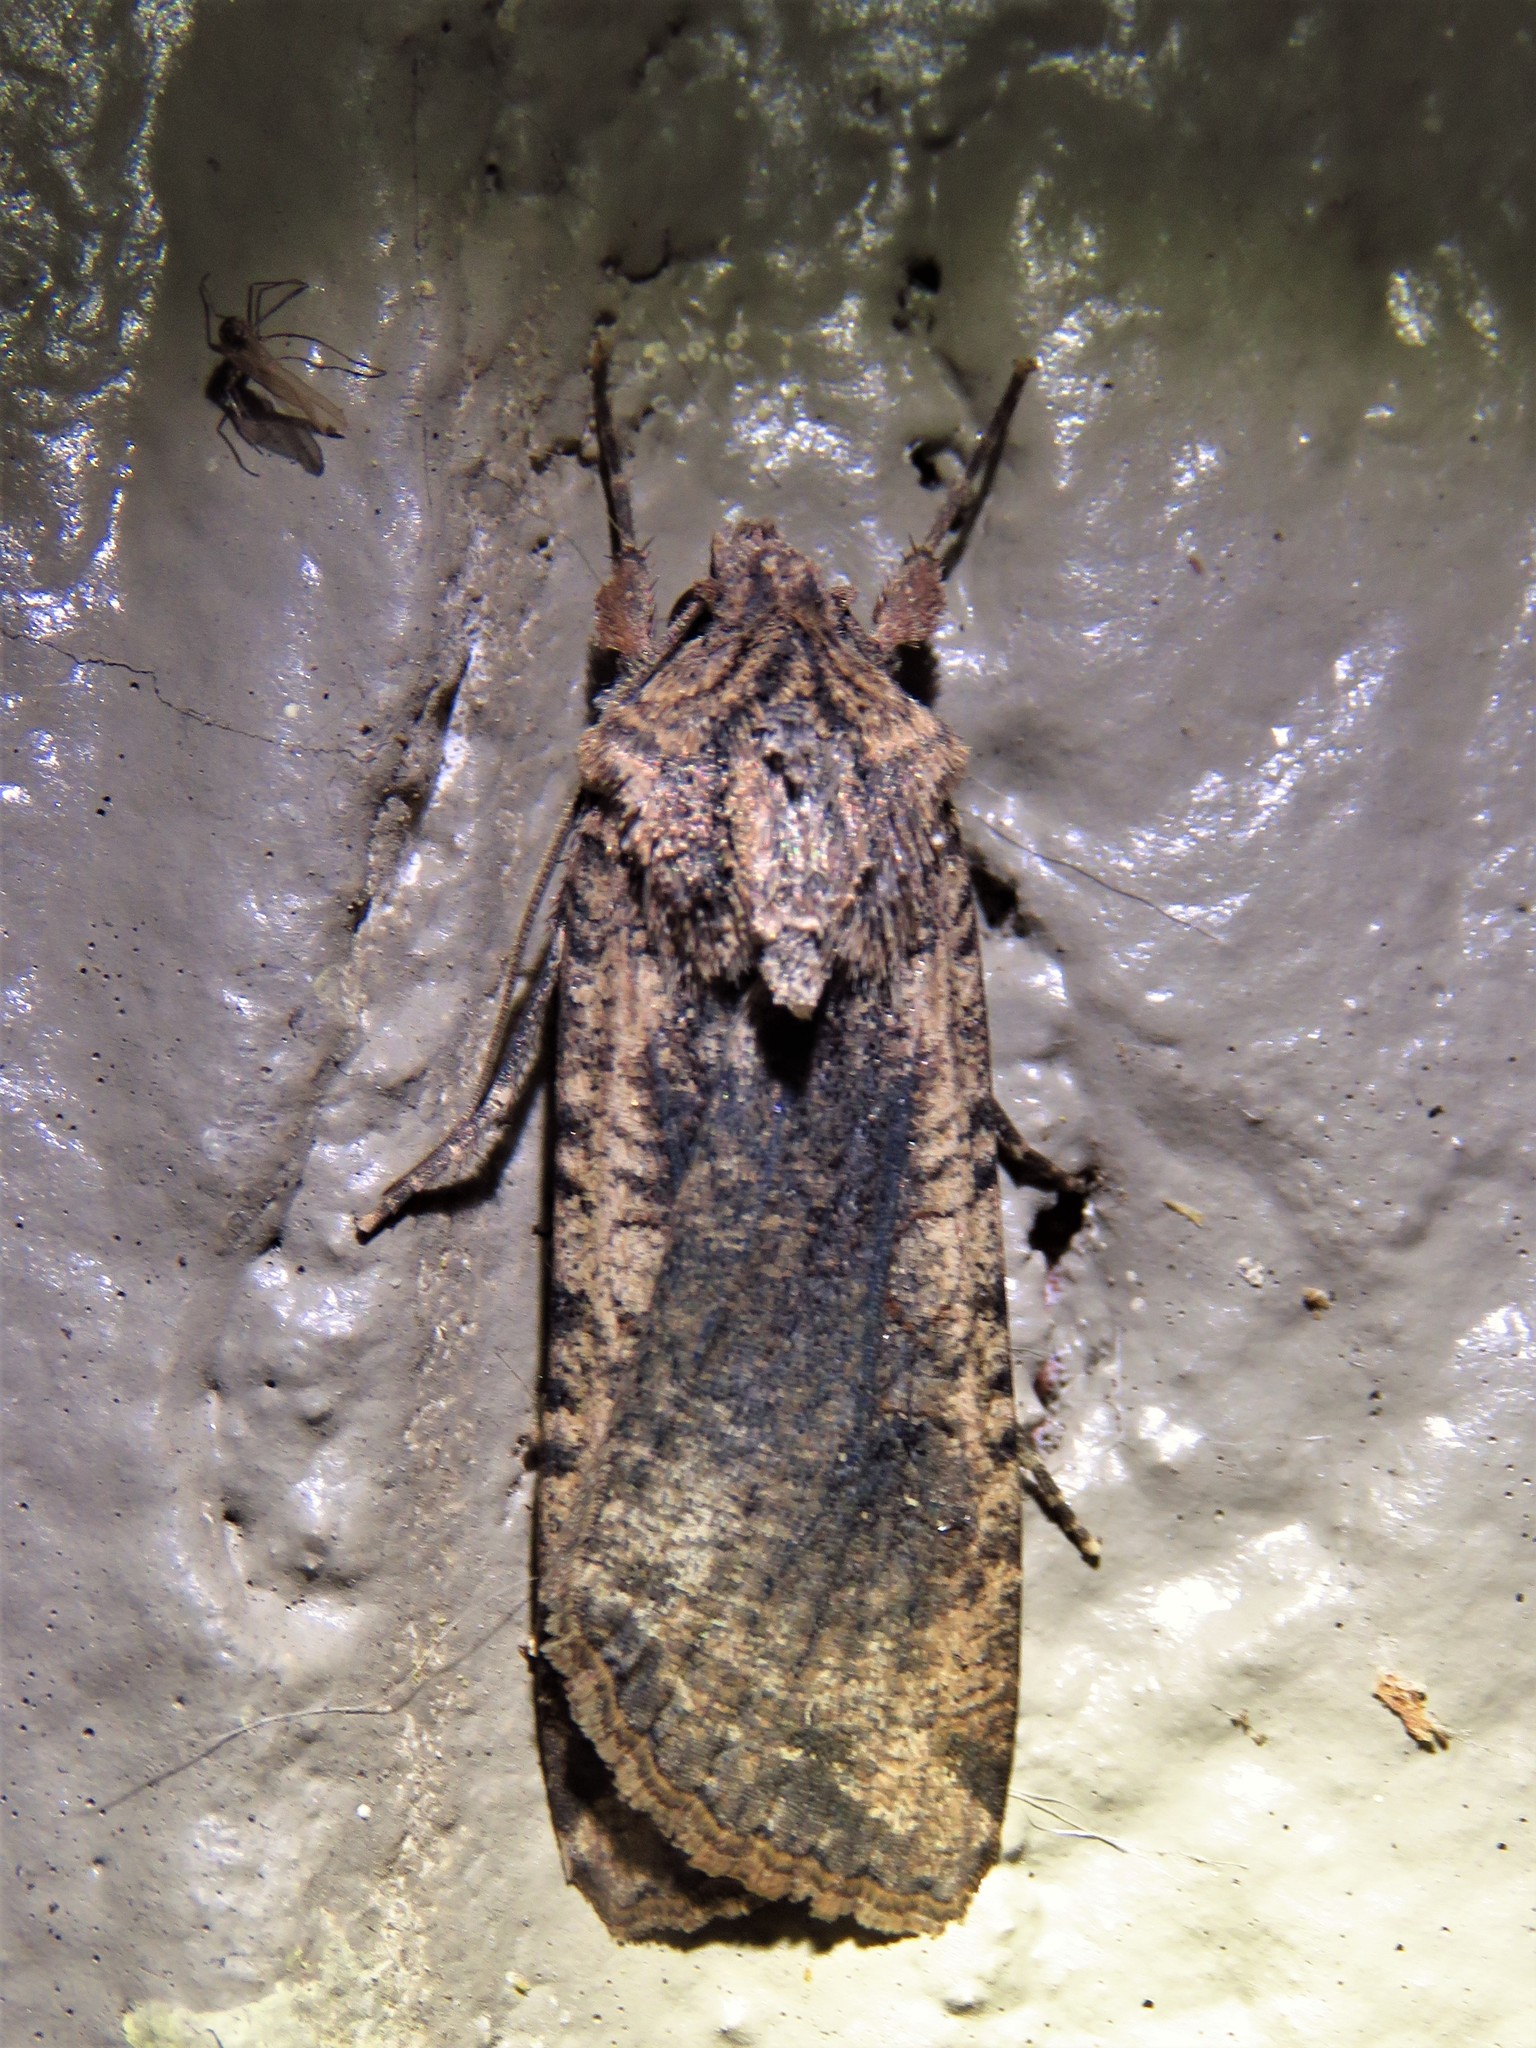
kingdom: Animalia
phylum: Arthropoda
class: Insecta
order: Lepidoptera
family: Noctuidae
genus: Peridroma
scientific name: Peridroma saucia
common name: Pearly underwing
